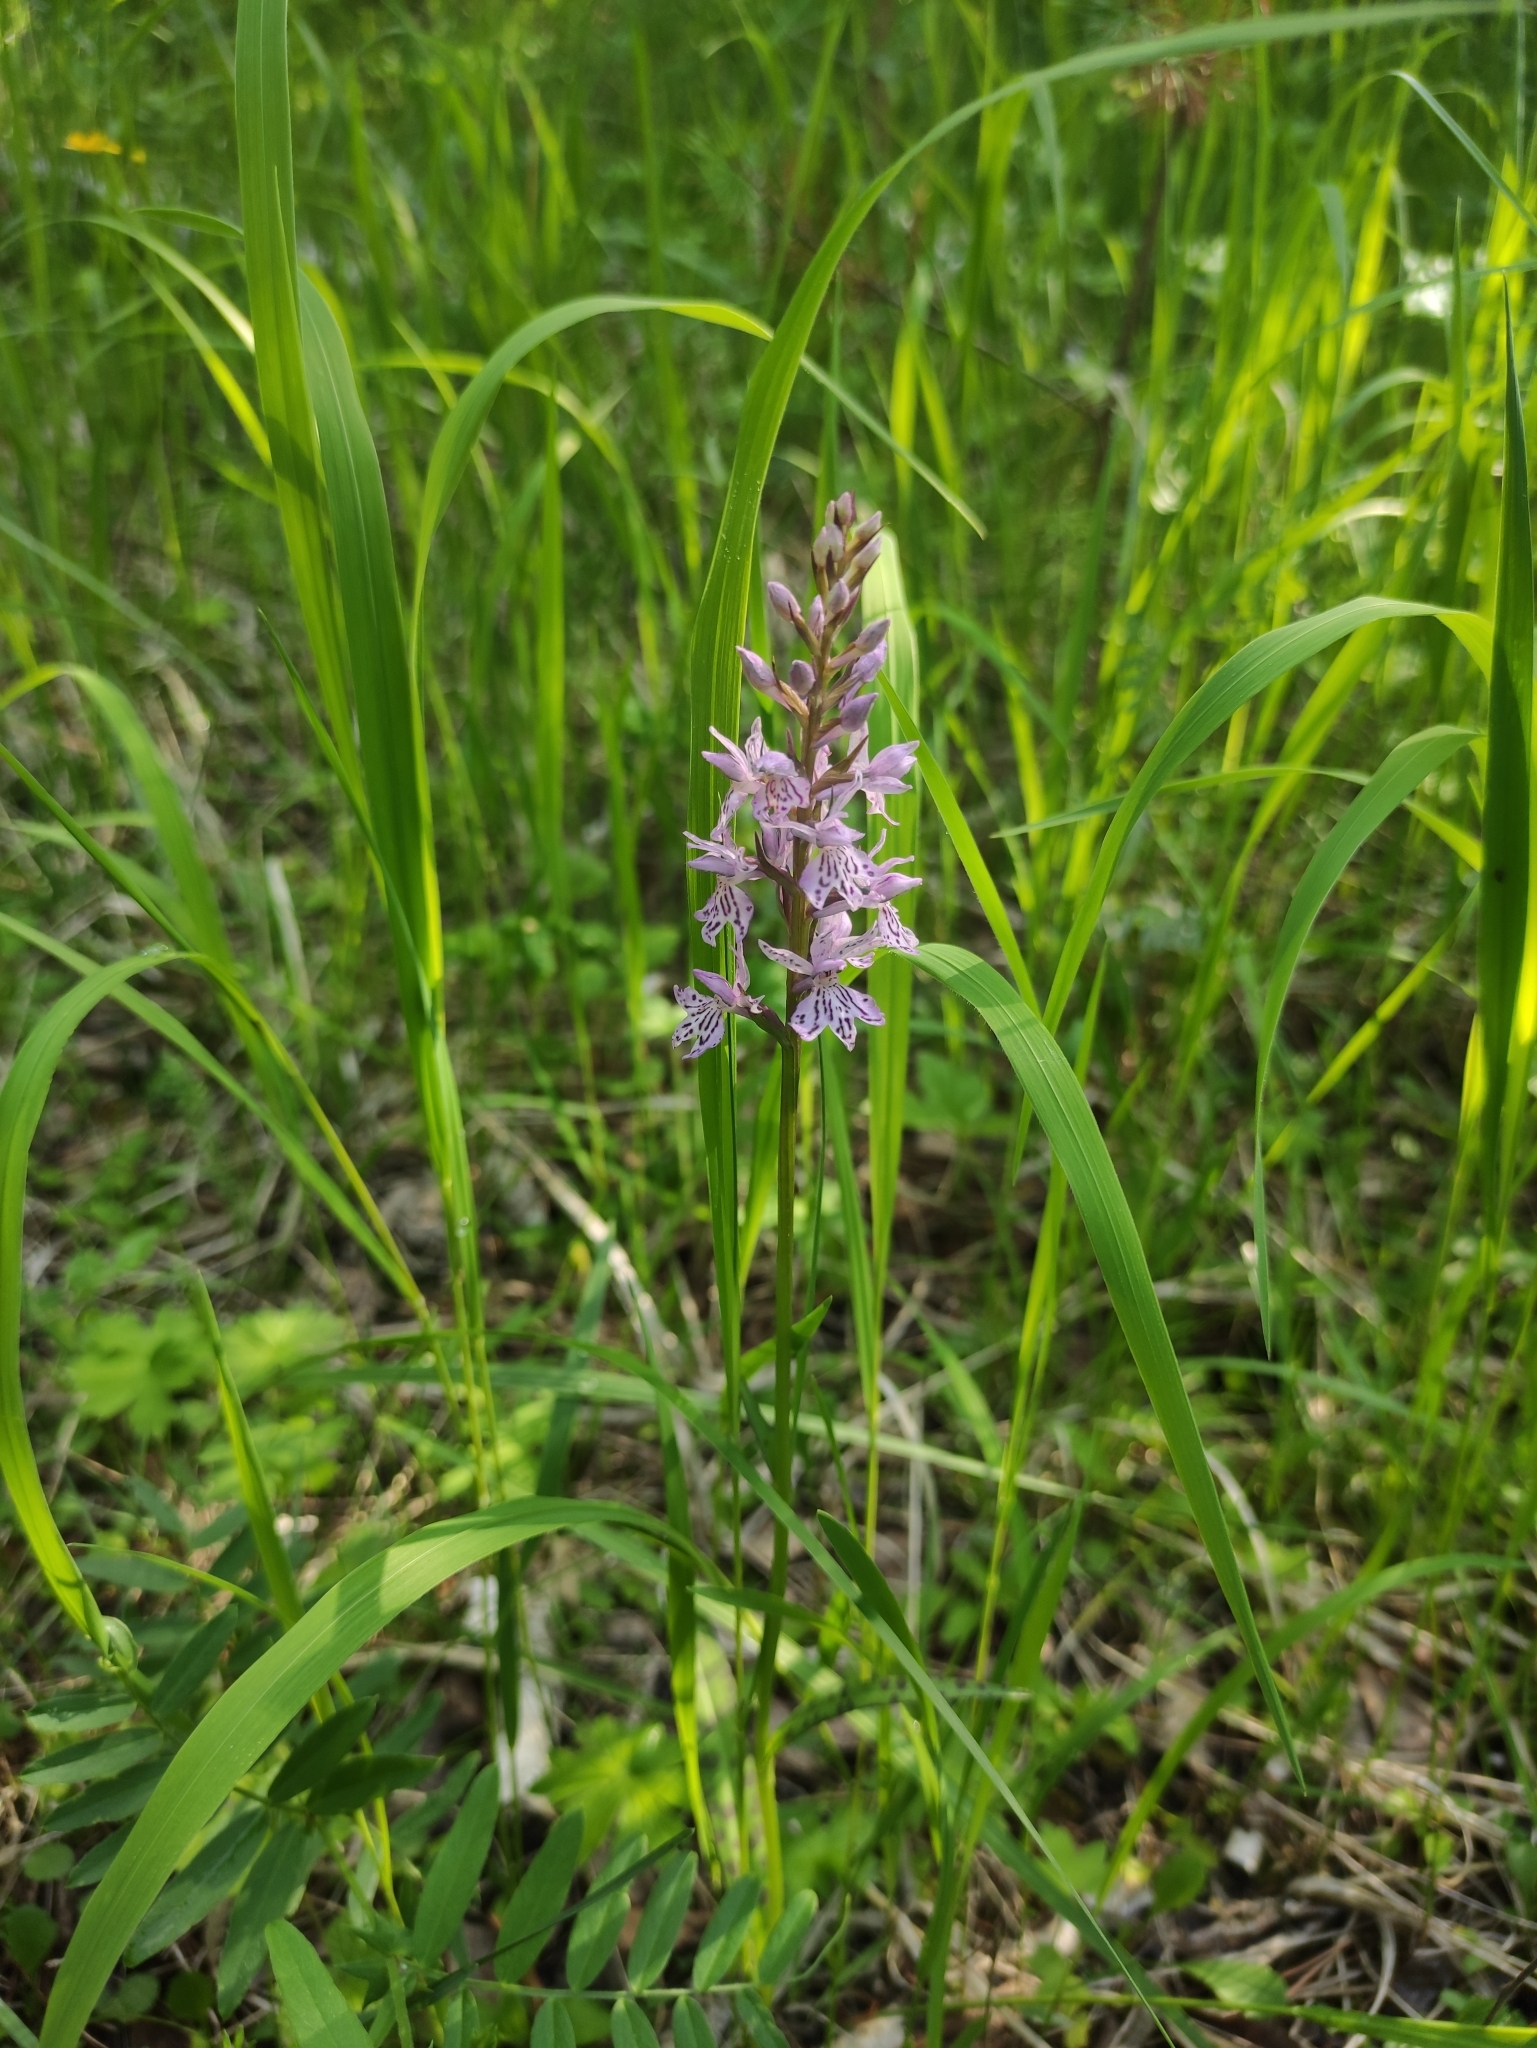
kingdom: Plantae
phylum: Tracheophyta
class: Liliopsida
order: Asparagales
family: Orchidaceae
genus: Dactylorhiza
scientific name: Dactylorhiza maculata
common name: Heath spotted-orchid
